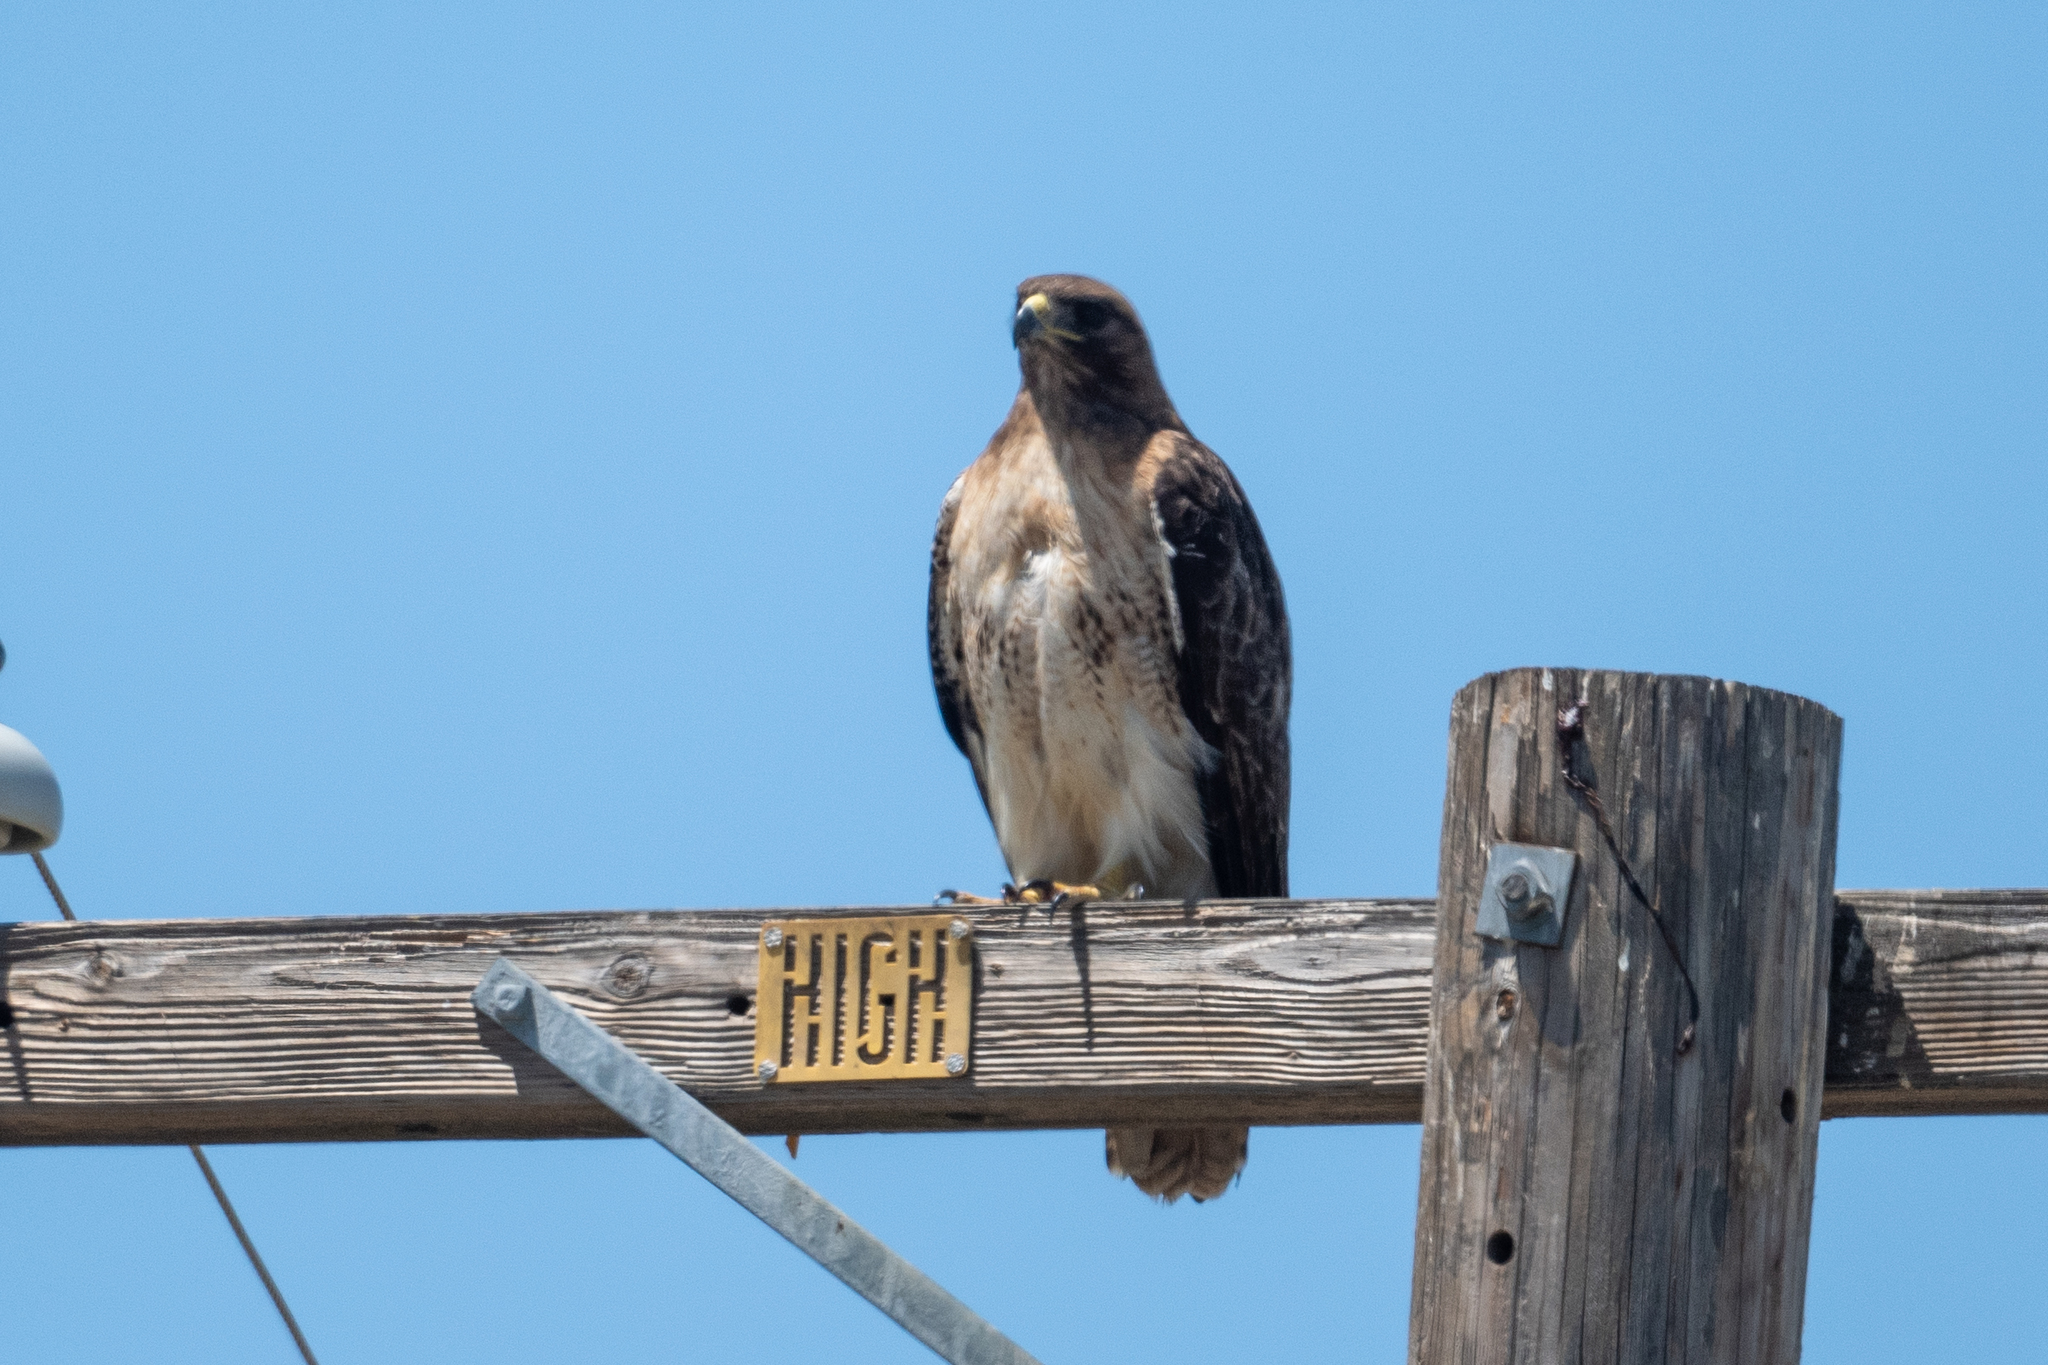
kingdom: Animalia
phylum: Chordata
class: Aves
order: Accipitriformes
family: Accipitridae
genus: Buteo
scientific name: Buteo jamaicensis
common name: Red-tailed hawk
